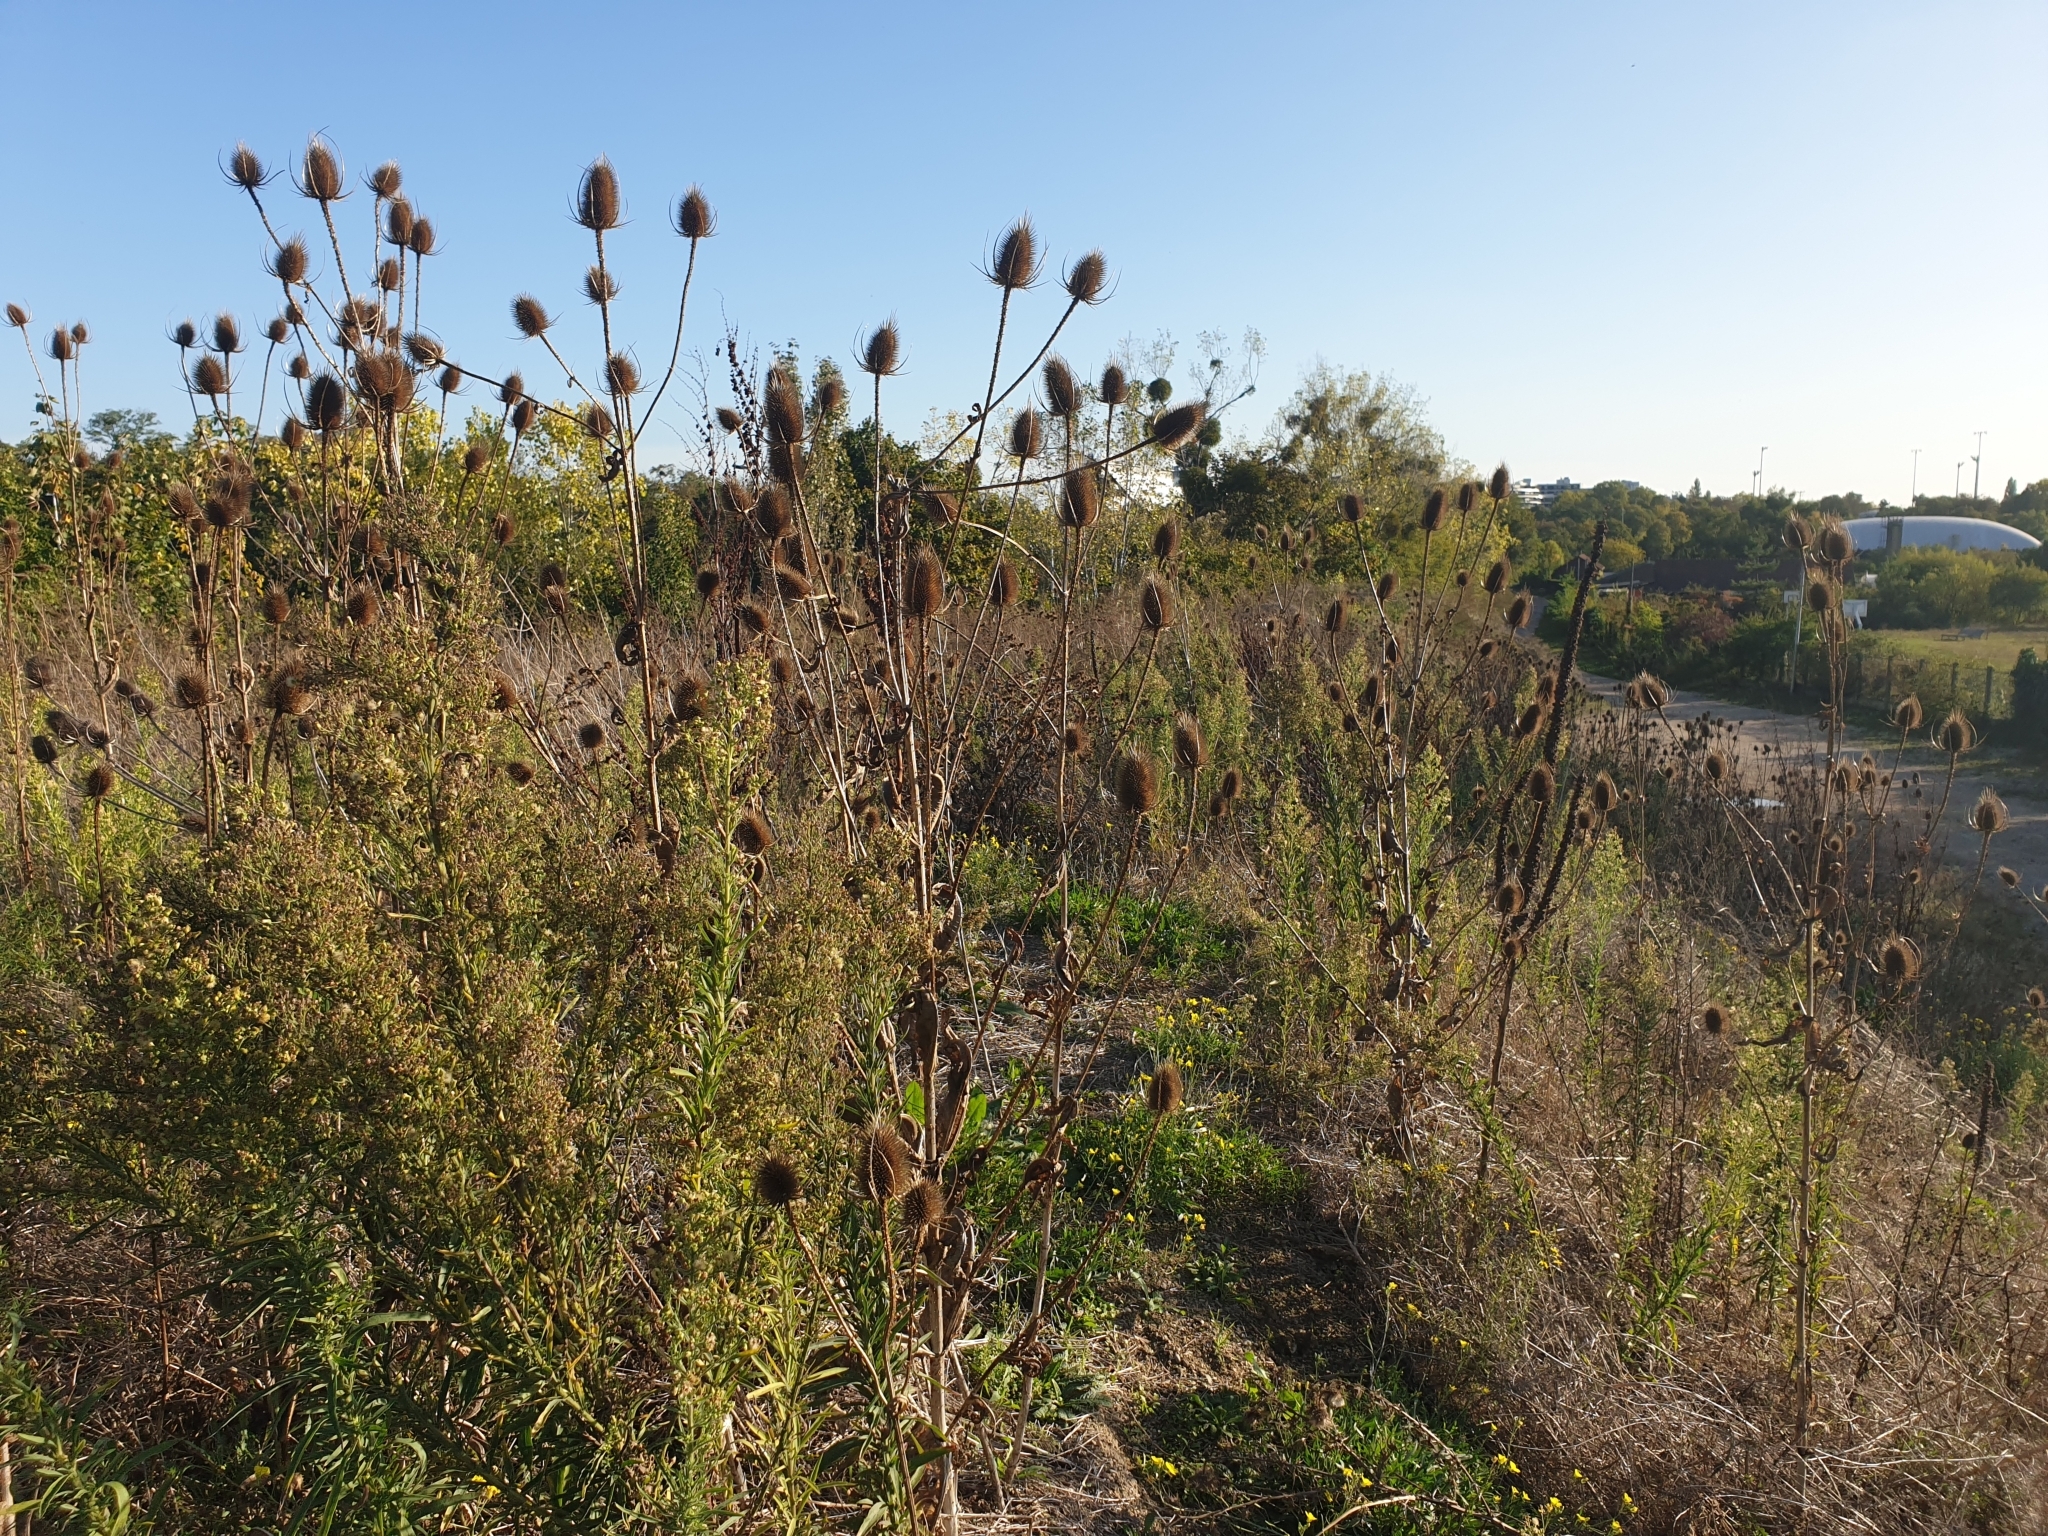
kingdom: Plantae
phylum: Tracheophyta
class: Magnoliopsida
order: Dipsacales
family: Caprifoliaceae
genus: Dipsacus
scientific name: Dipsacus fullonum
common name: Teasel
